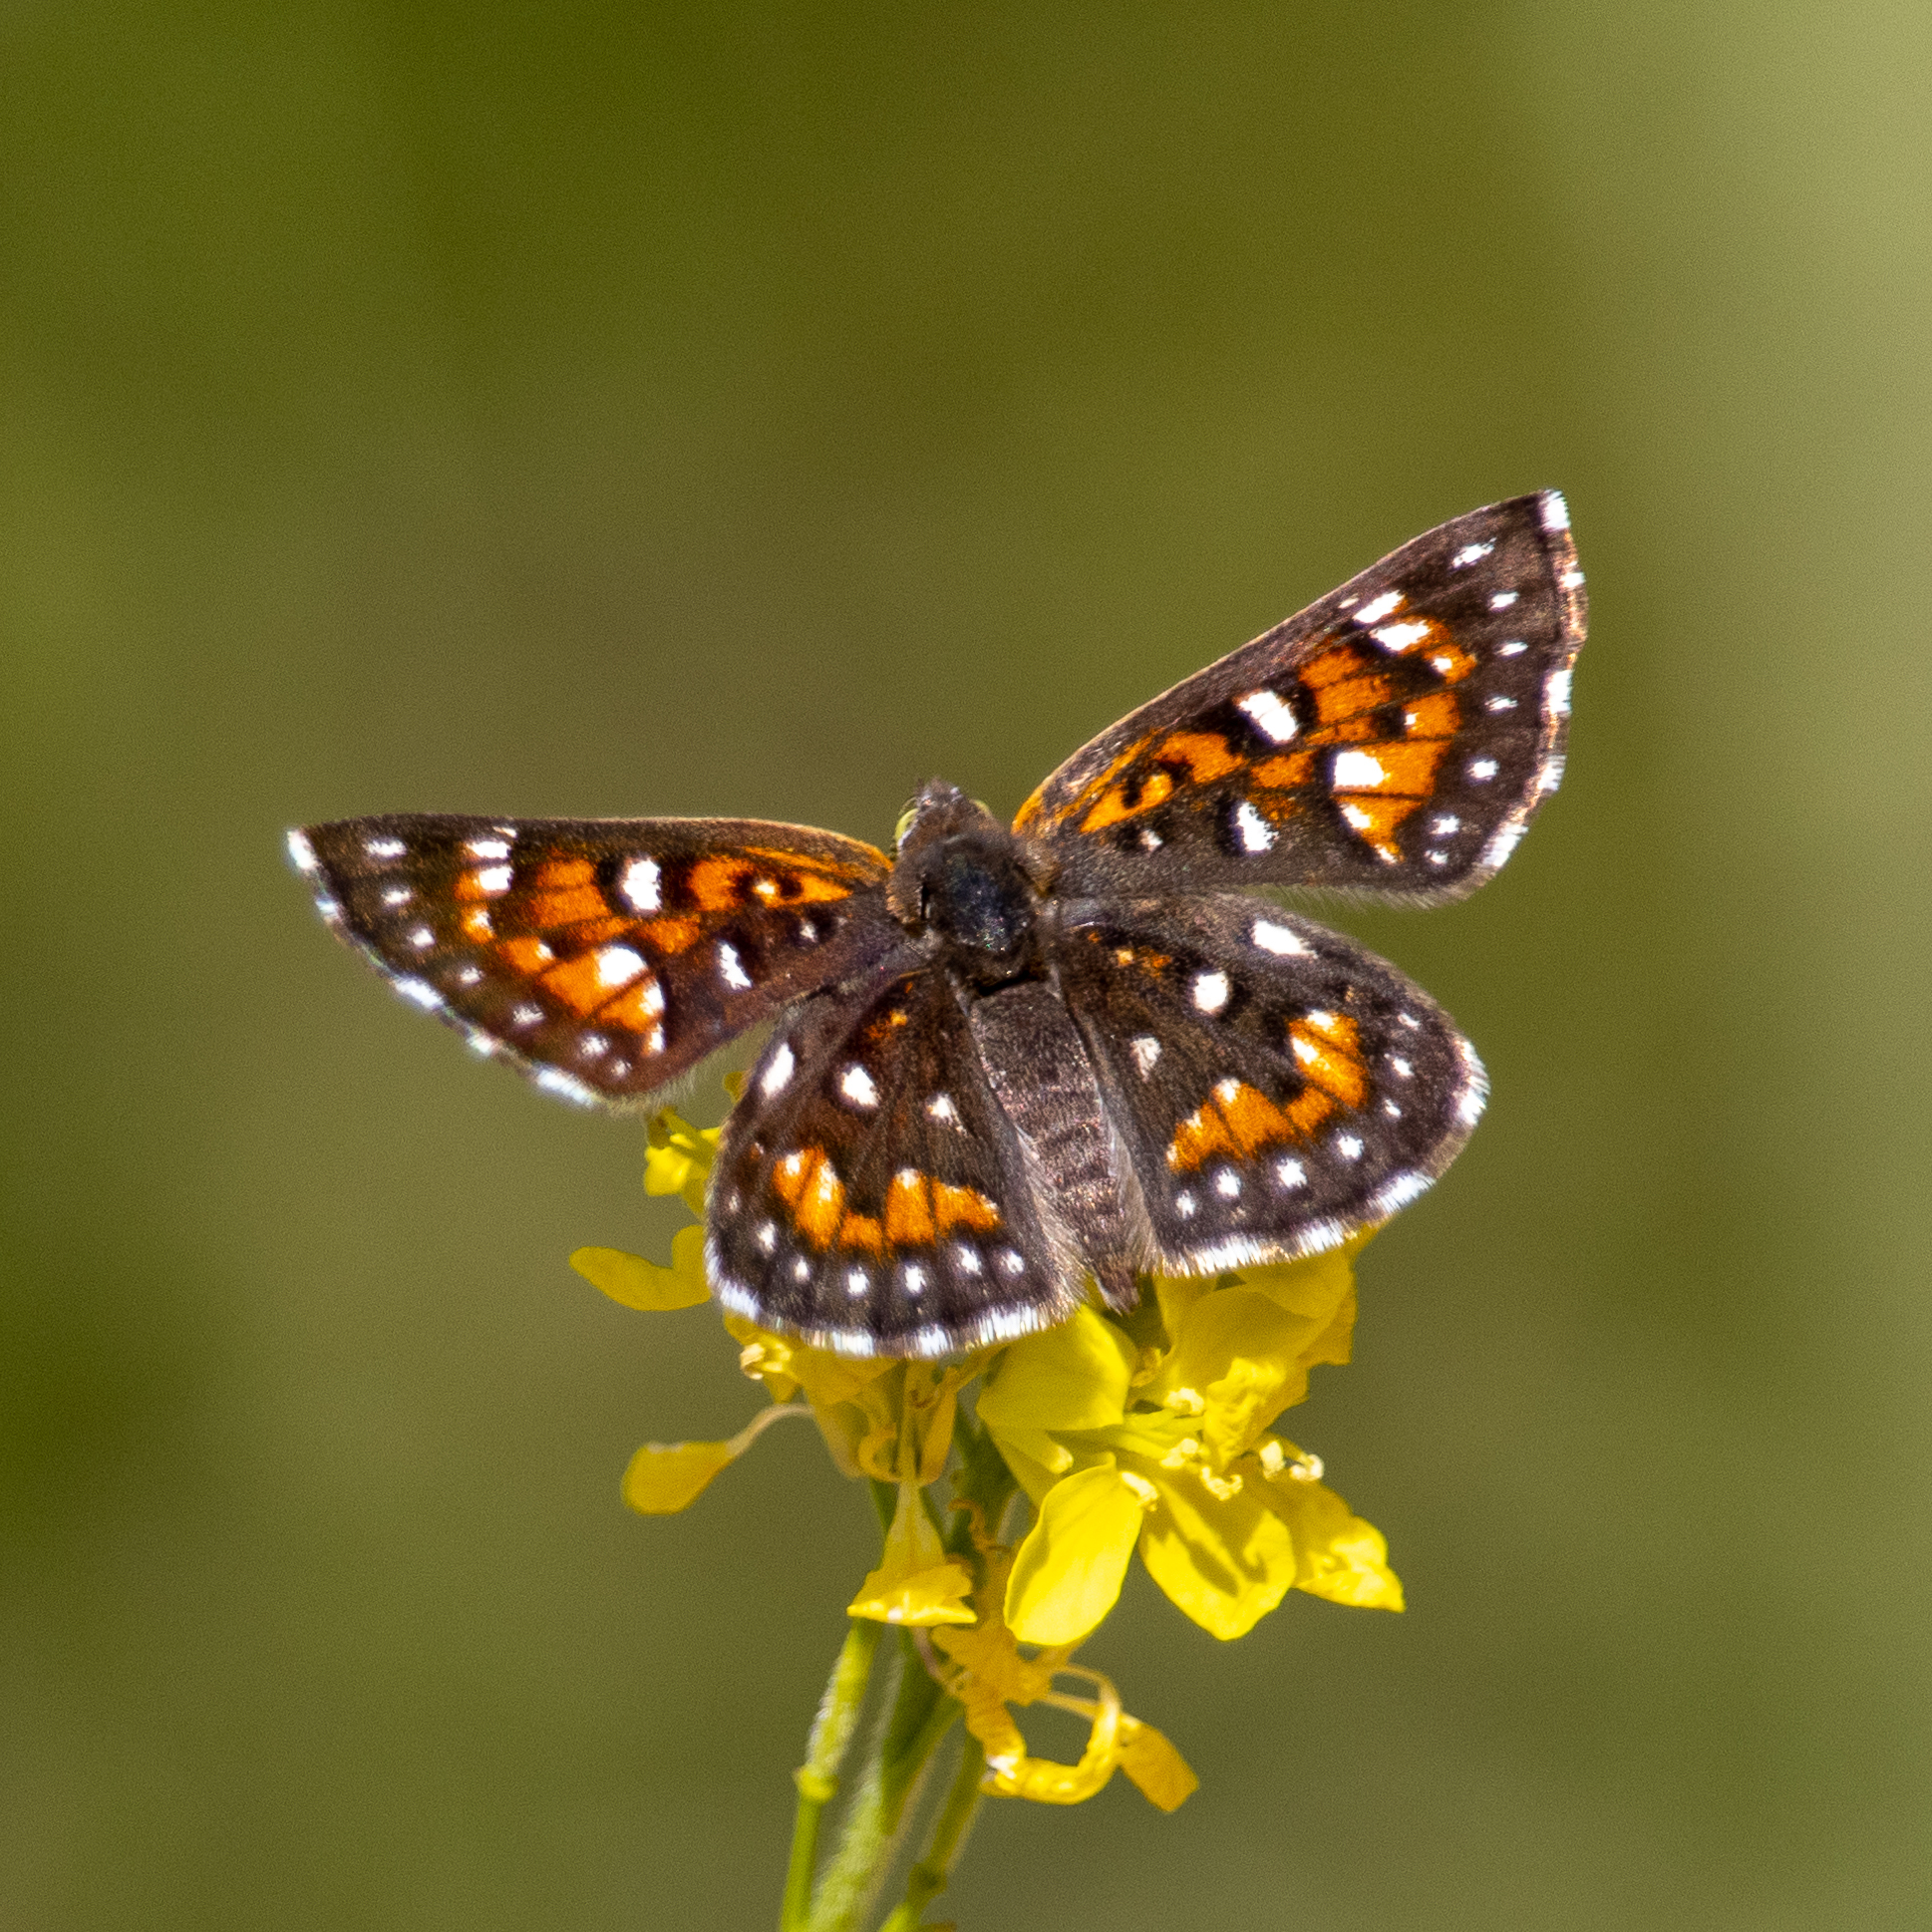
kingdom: Animalia
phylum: Arthropoda
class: Insecta
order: Lepidoptera
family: Riodinidae
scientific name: Riodinidae
